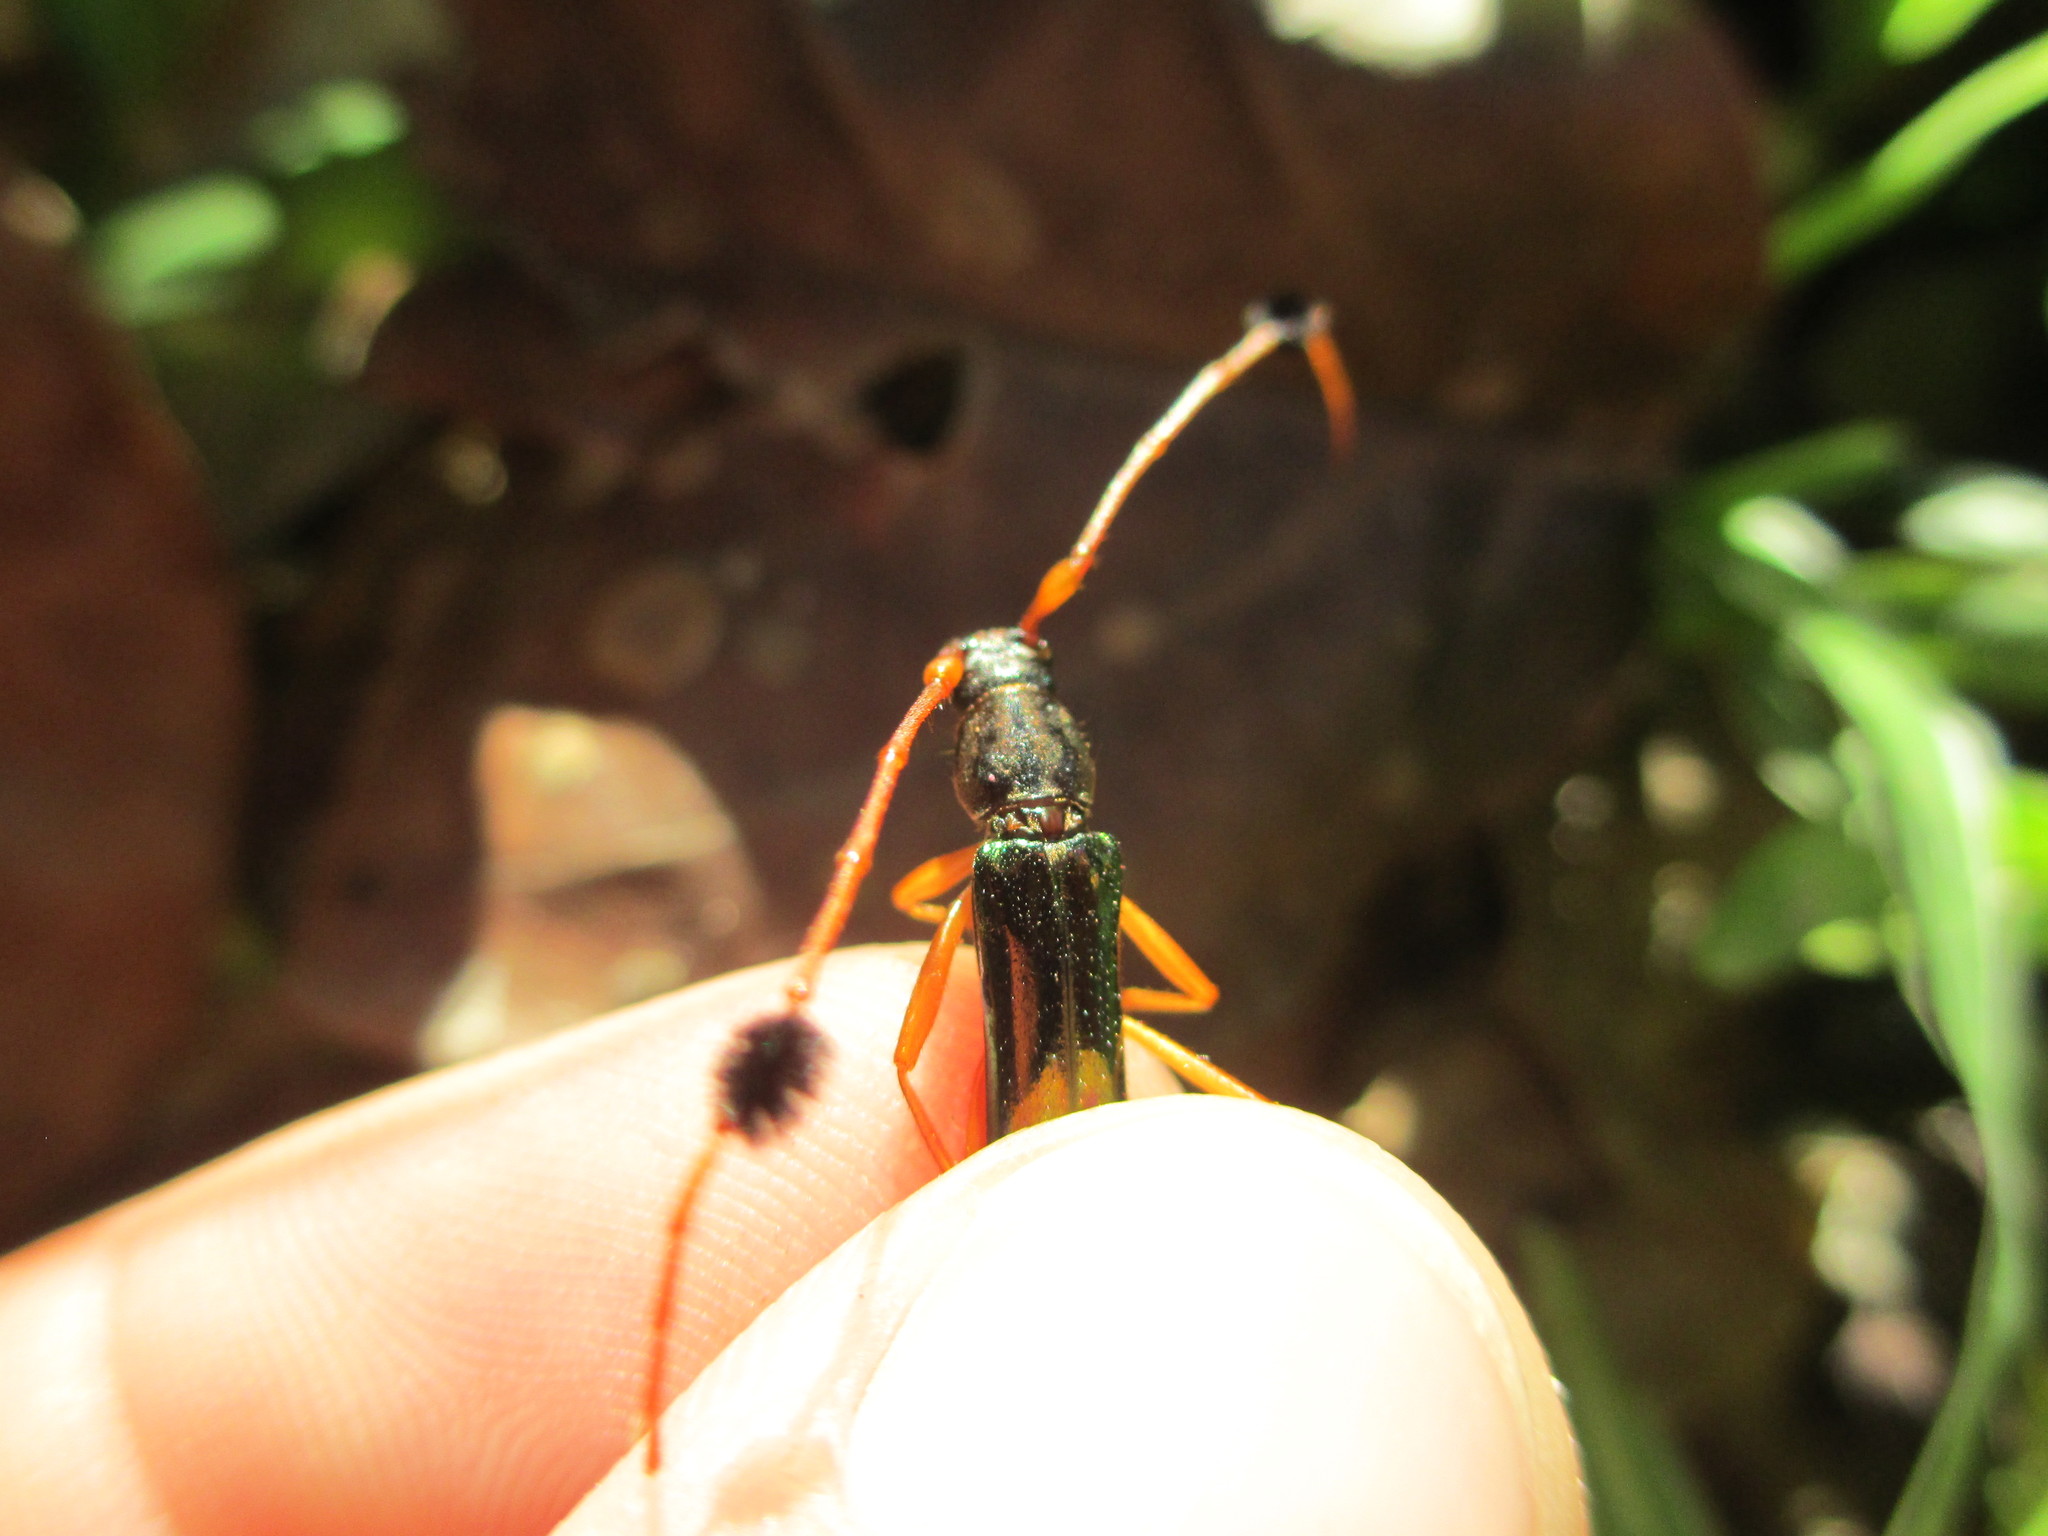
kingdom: Animalia
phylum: Arthropoda
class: Insecta
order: Coleoptera
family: Cerambycidae
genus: Compsocerus
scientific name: Compsocerus chevrolati
